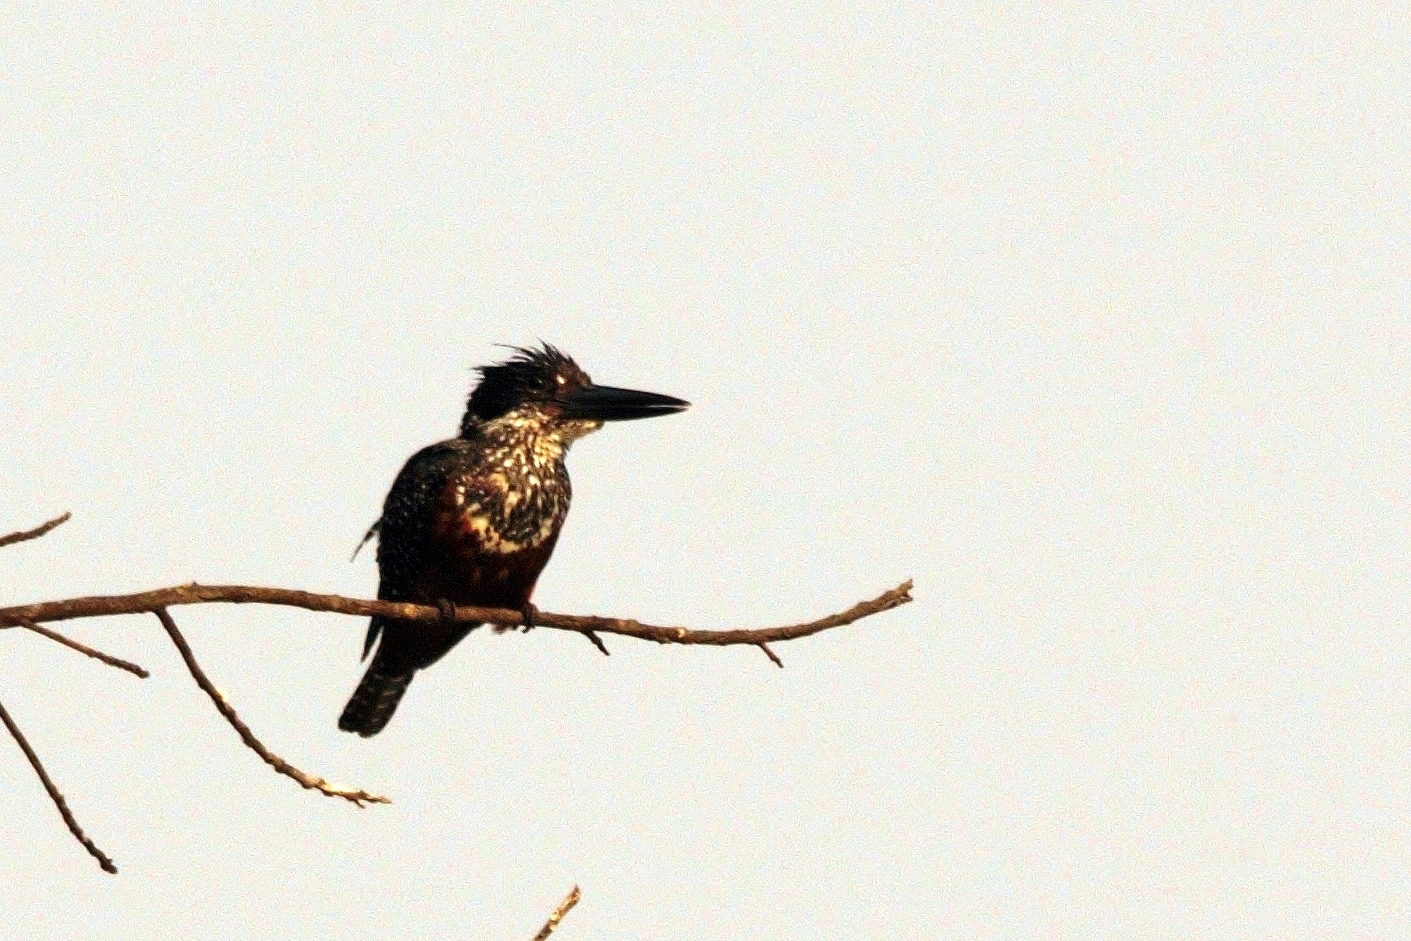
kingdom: Animalia
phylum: Chordata
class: Aves
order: Coraciiformes
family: Alcedinidae
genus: Megaceryle
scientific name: Megaceryle maxima
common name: Giant kingfisher
